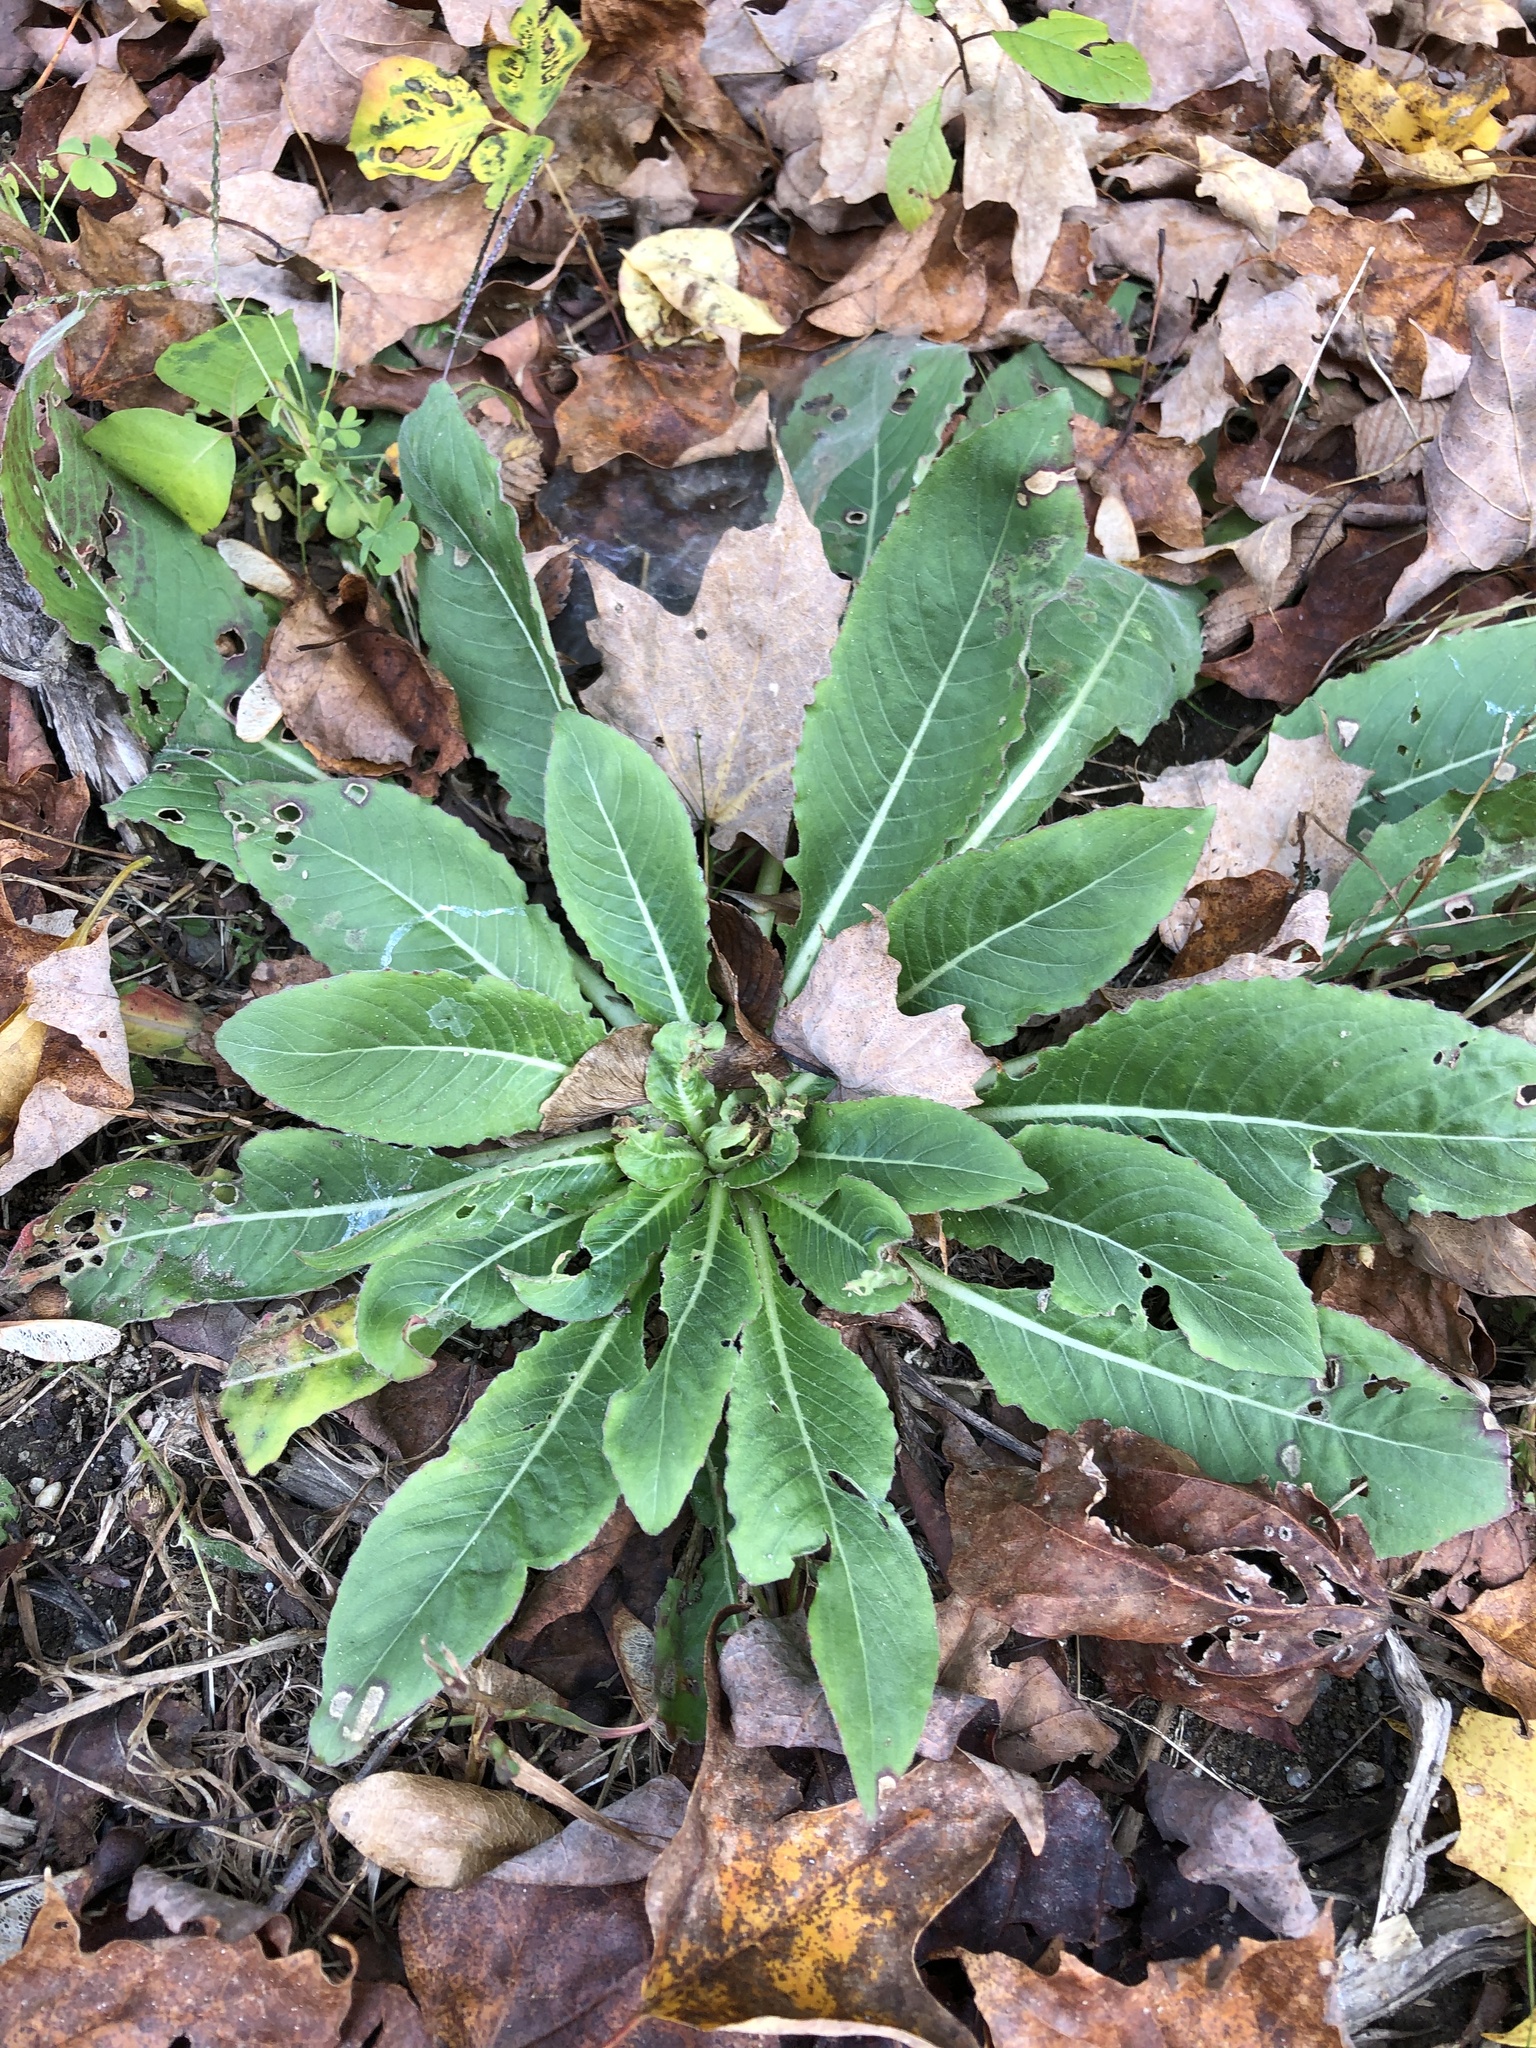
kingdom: Plantae
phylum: Tracheophyta
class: Magnoliopsida
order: Brassicales
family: Brassicaceae
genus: Hesperis
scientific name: Hesperis matronalis
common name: Dame's-violet
